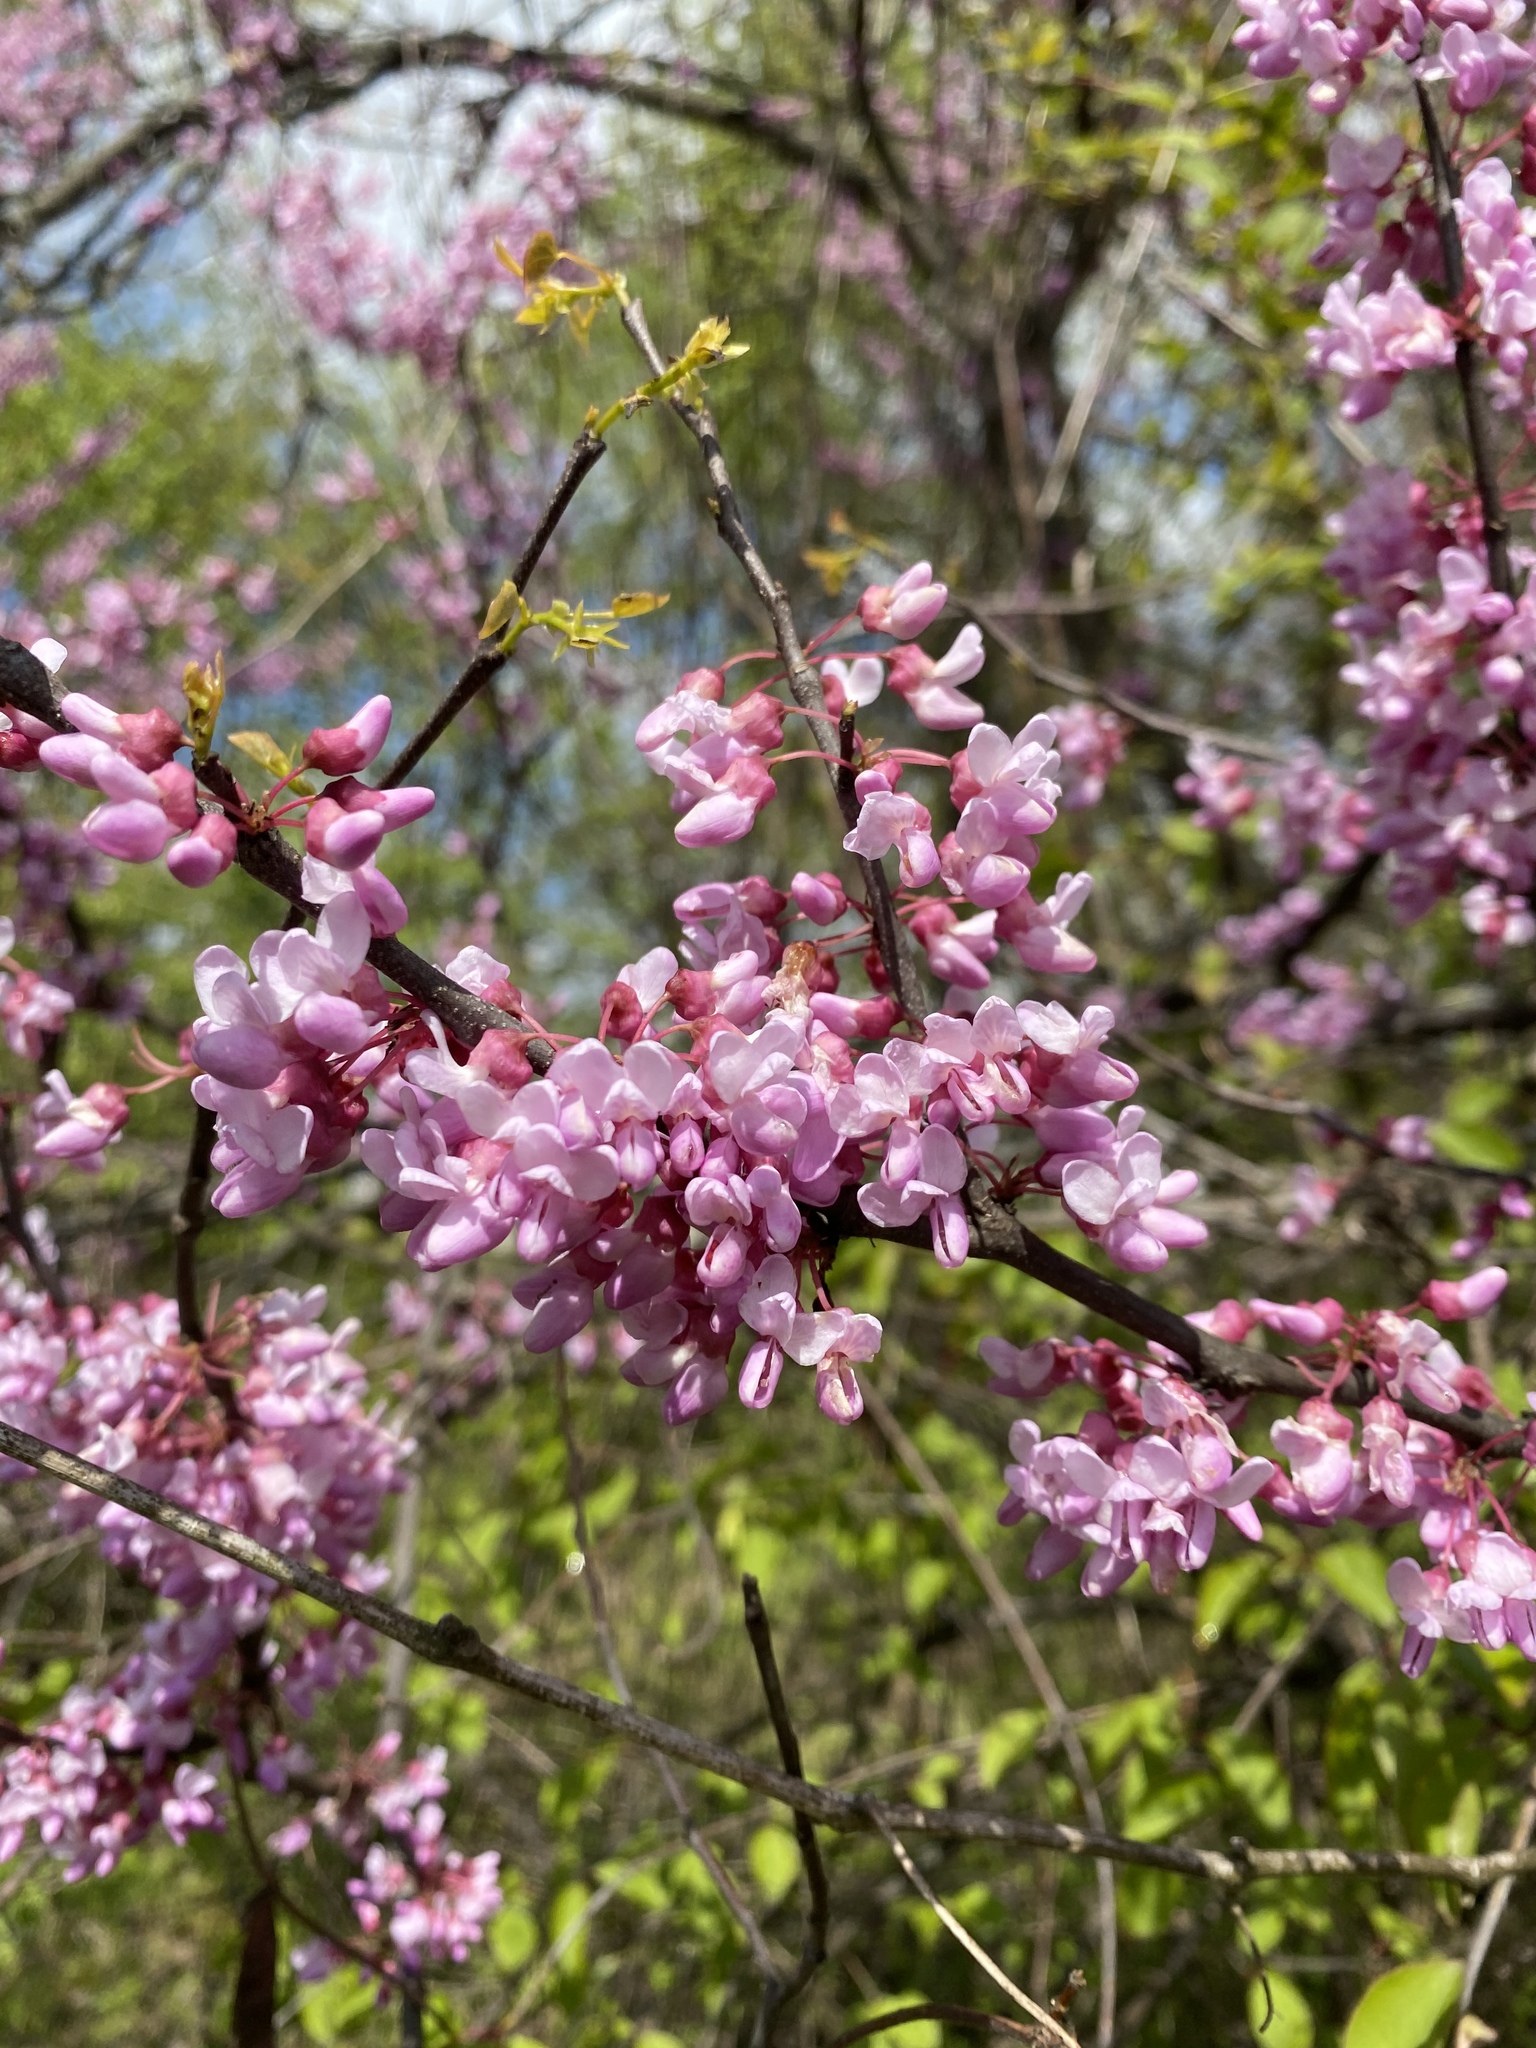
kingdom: Plantae
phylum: Tracheophyta
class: Magnoliopsida
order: Fabales
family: Fabaceae
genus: Cercis
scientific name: Cercis canadensis
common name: Eastern redbud
